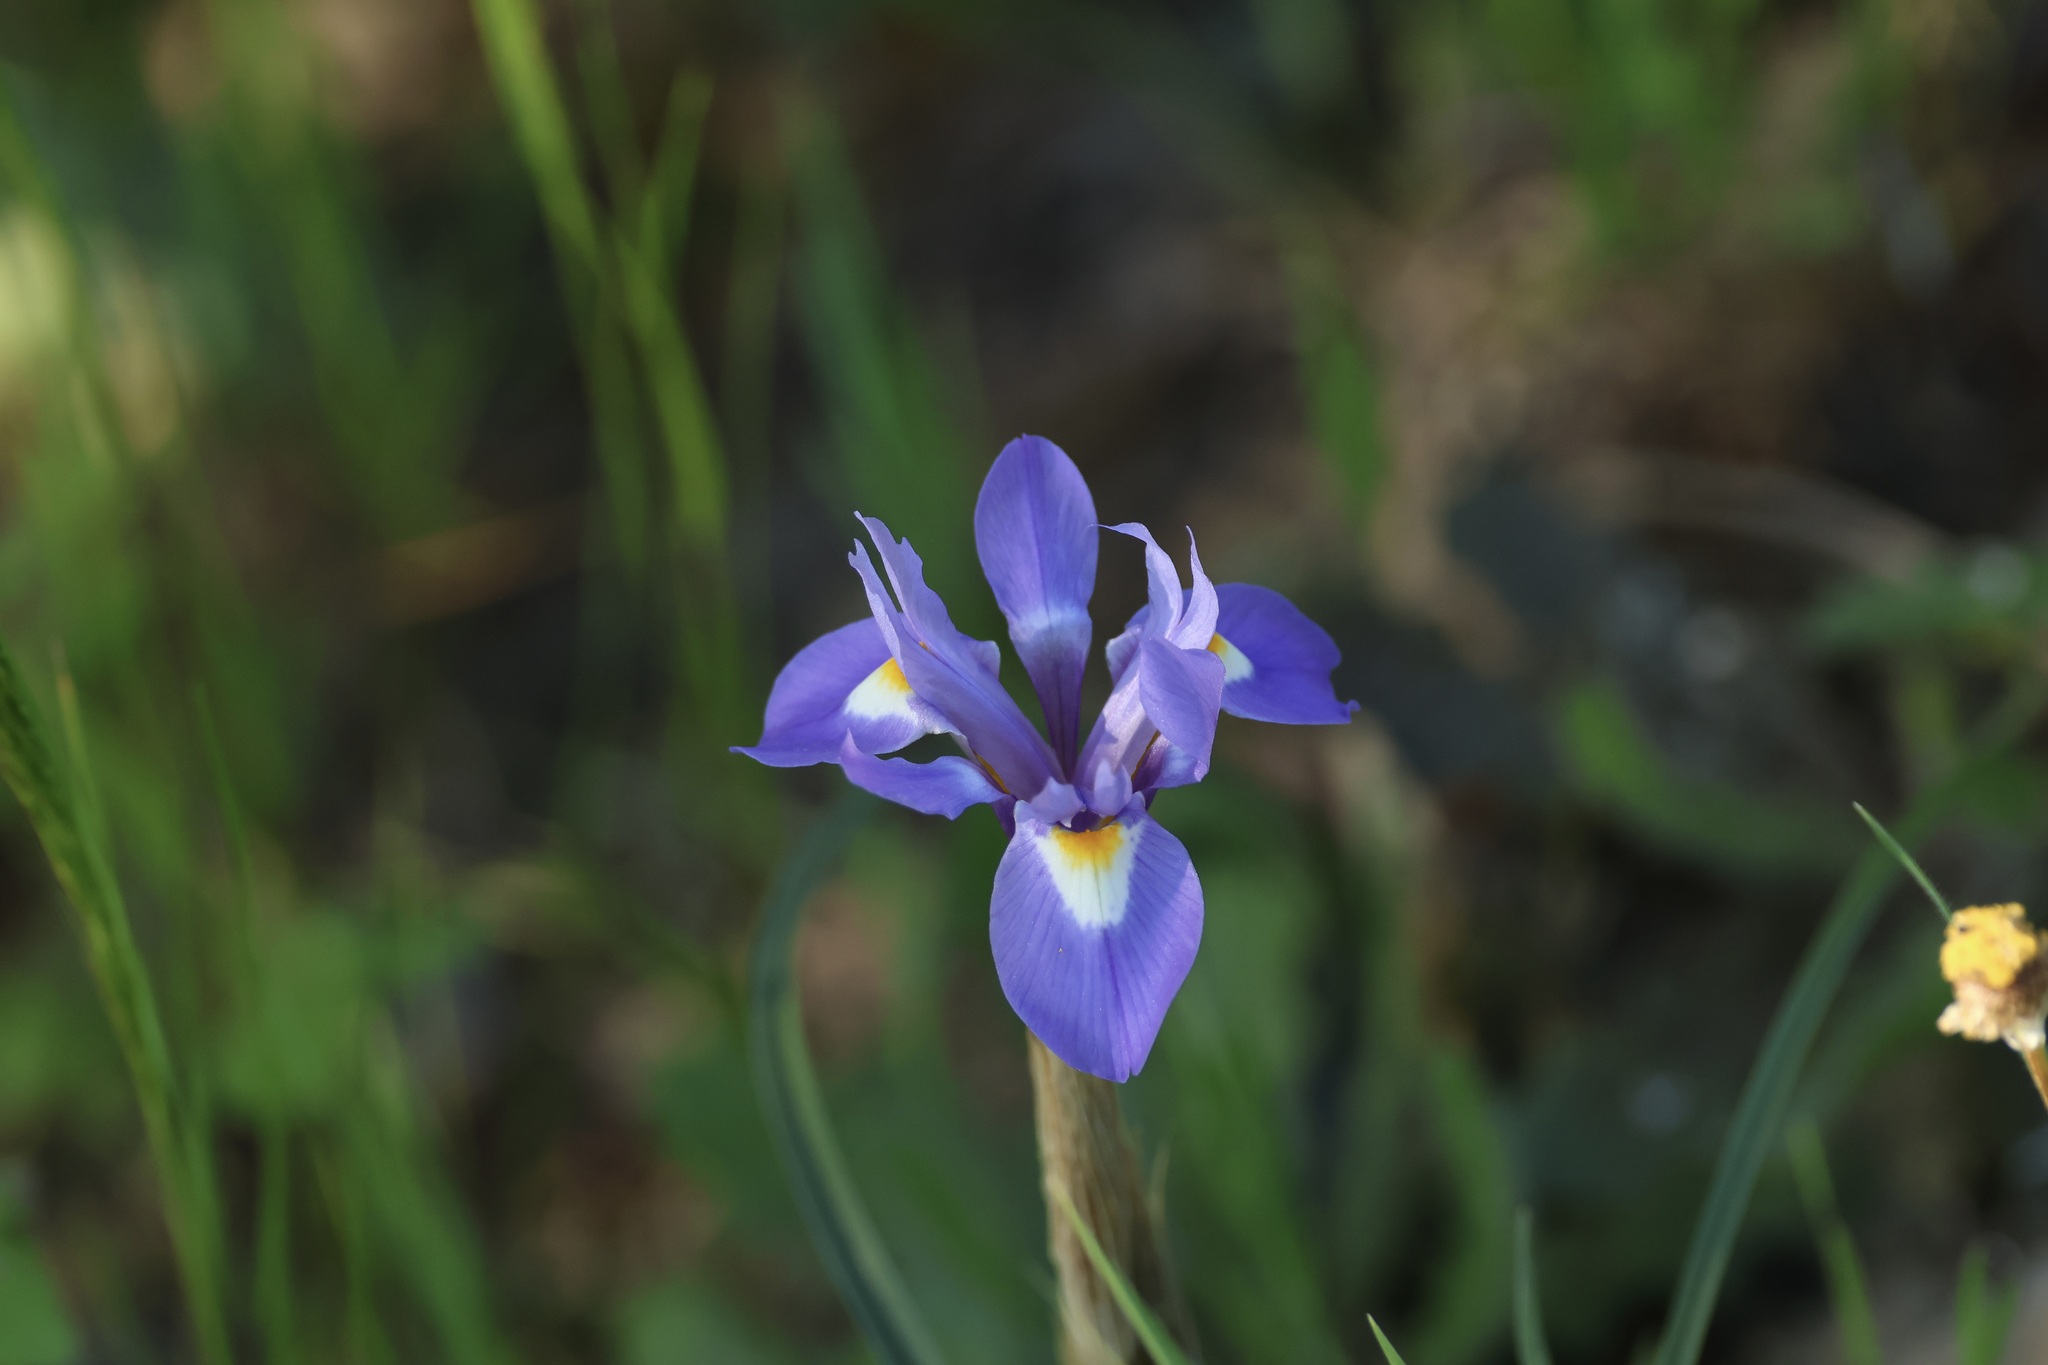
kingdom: Plantae
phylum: Tracheophyta
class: Liliopsida
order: Asparagales
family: Iridaceae
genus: Moraea
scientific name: Moraea sisyrinchium
